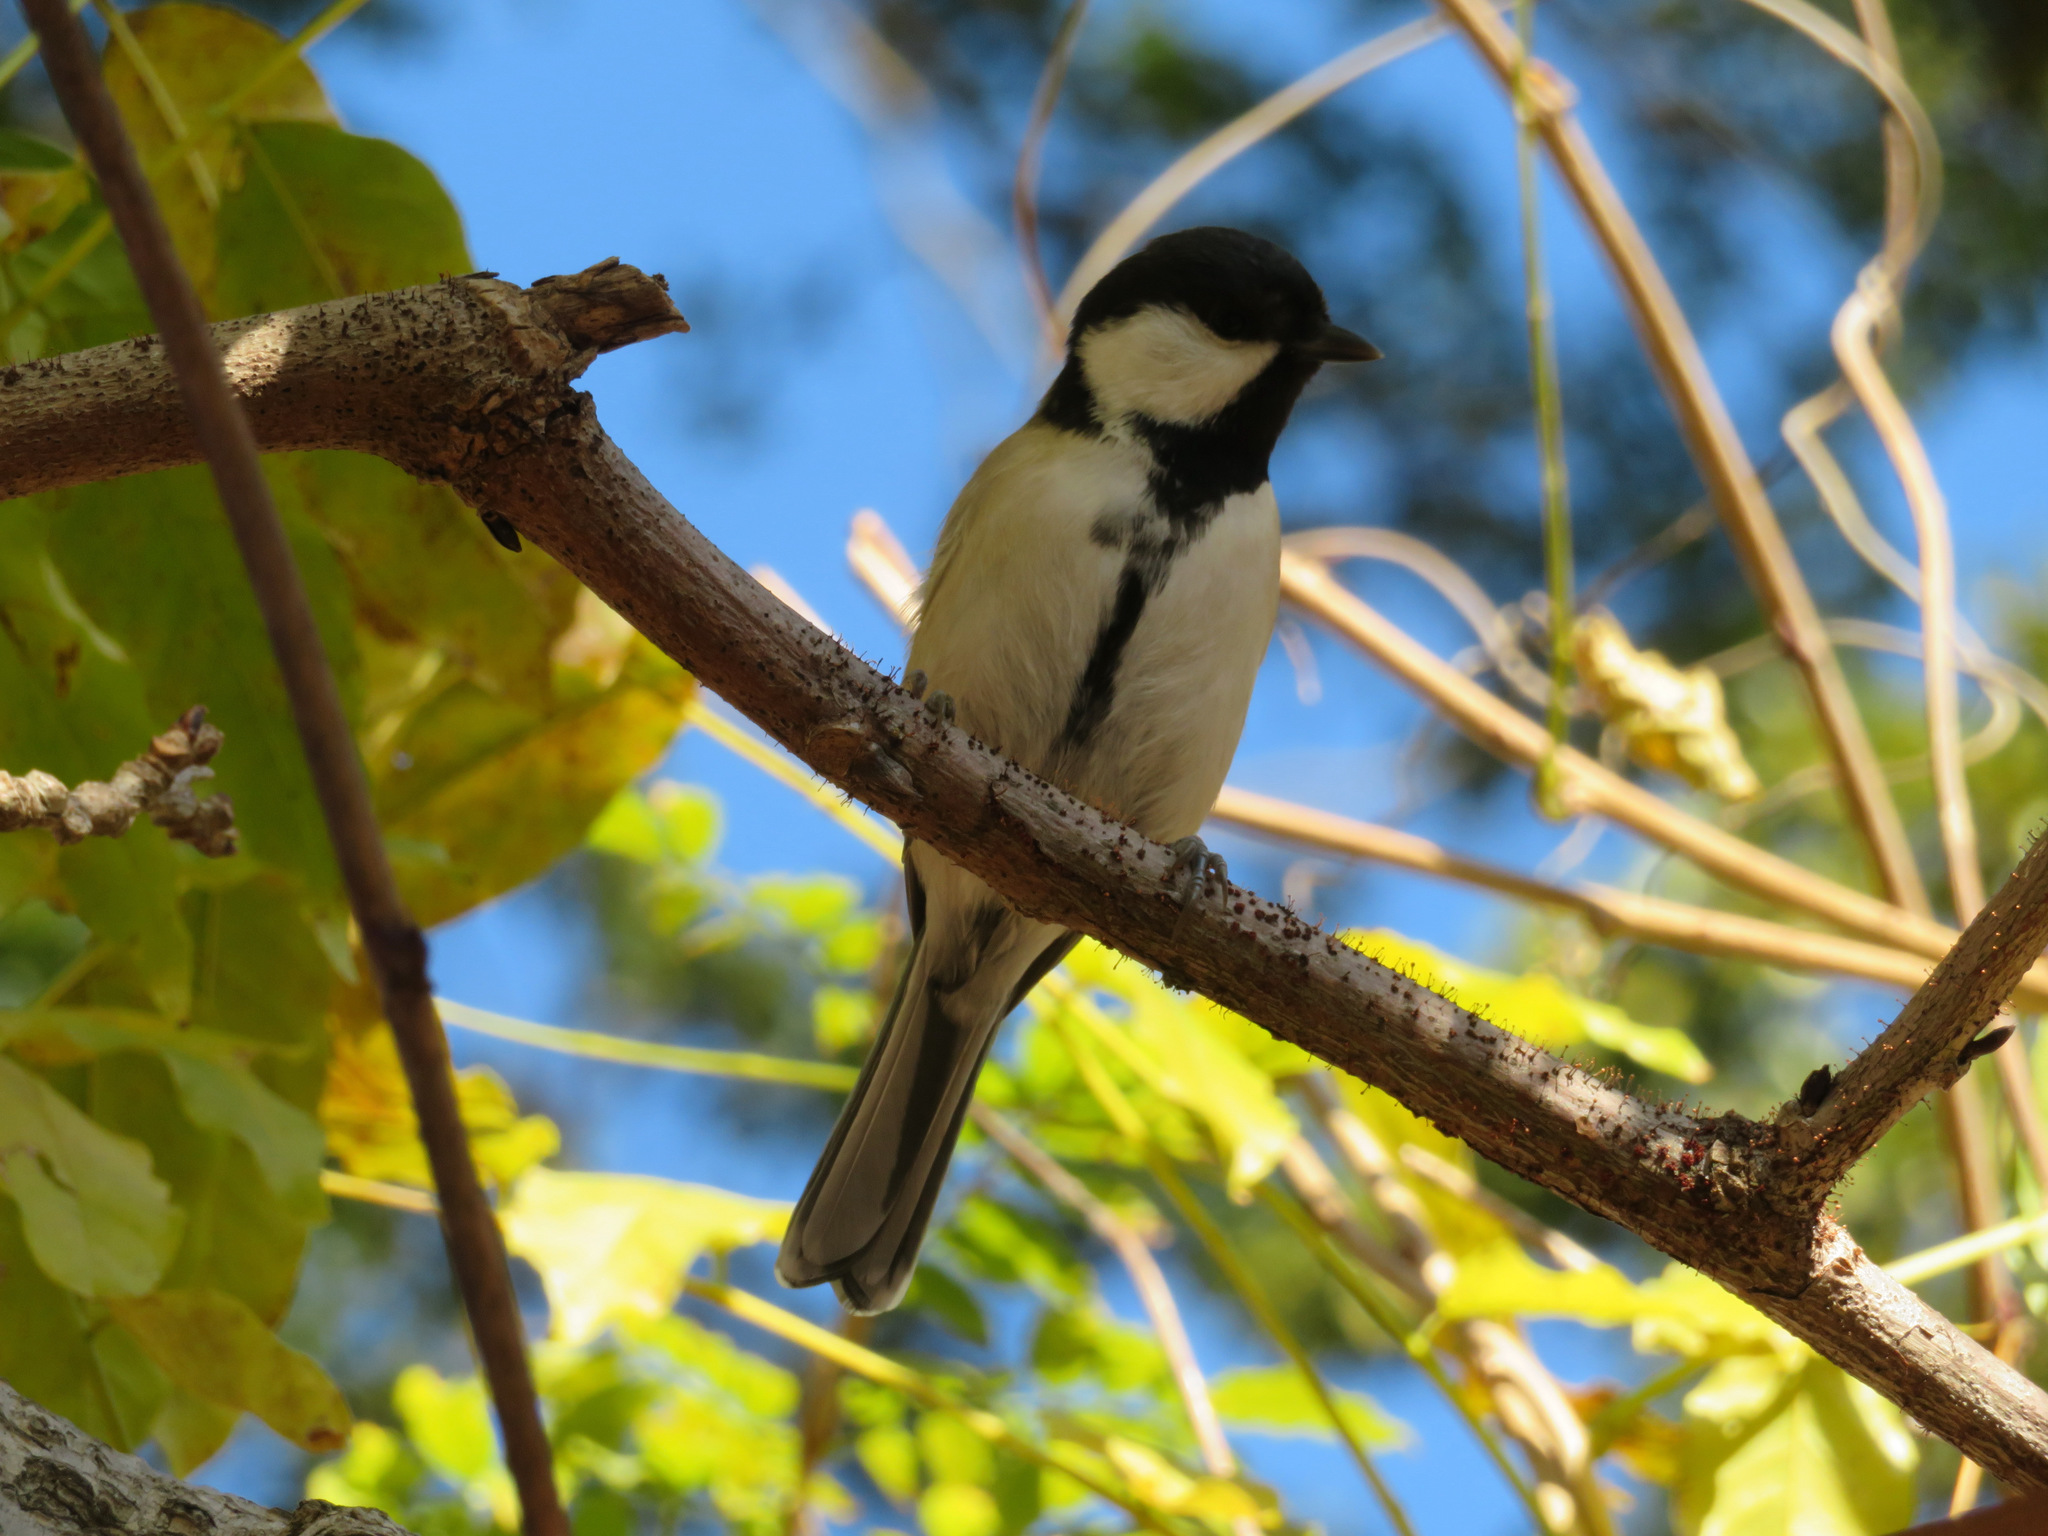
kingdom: Animalia
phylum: Chordata
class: Aves
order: Passeriformes
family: Paridae
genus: Parus
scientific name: Parus minor
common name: Japanese tit
